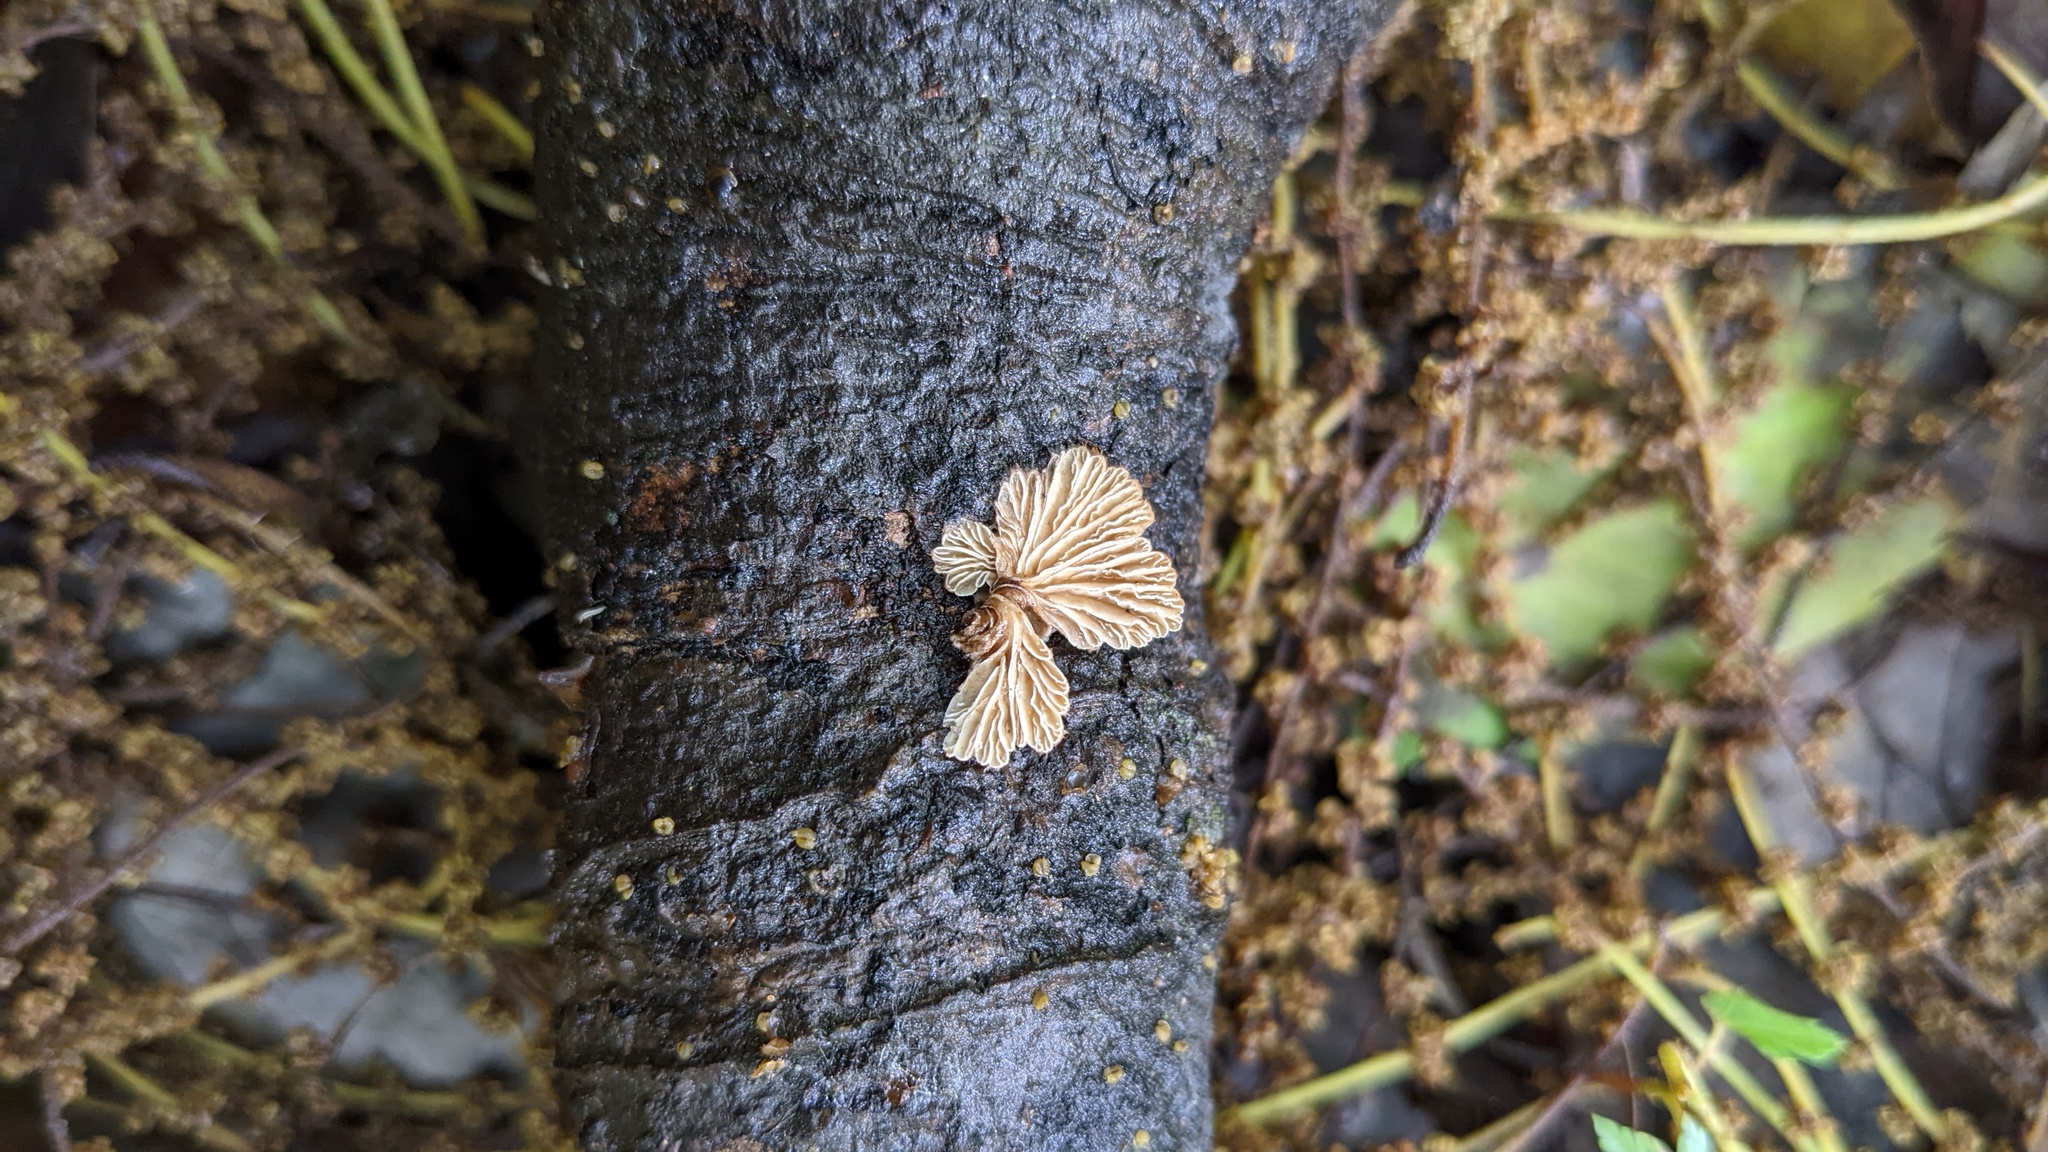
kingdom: Fungi
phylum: Basidiomycota
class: Agaricomycetes
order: Agaricales
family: Schizophyllaceae
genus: Schizophyllum
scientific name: Schizophyllum commune
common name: Common porecrust
